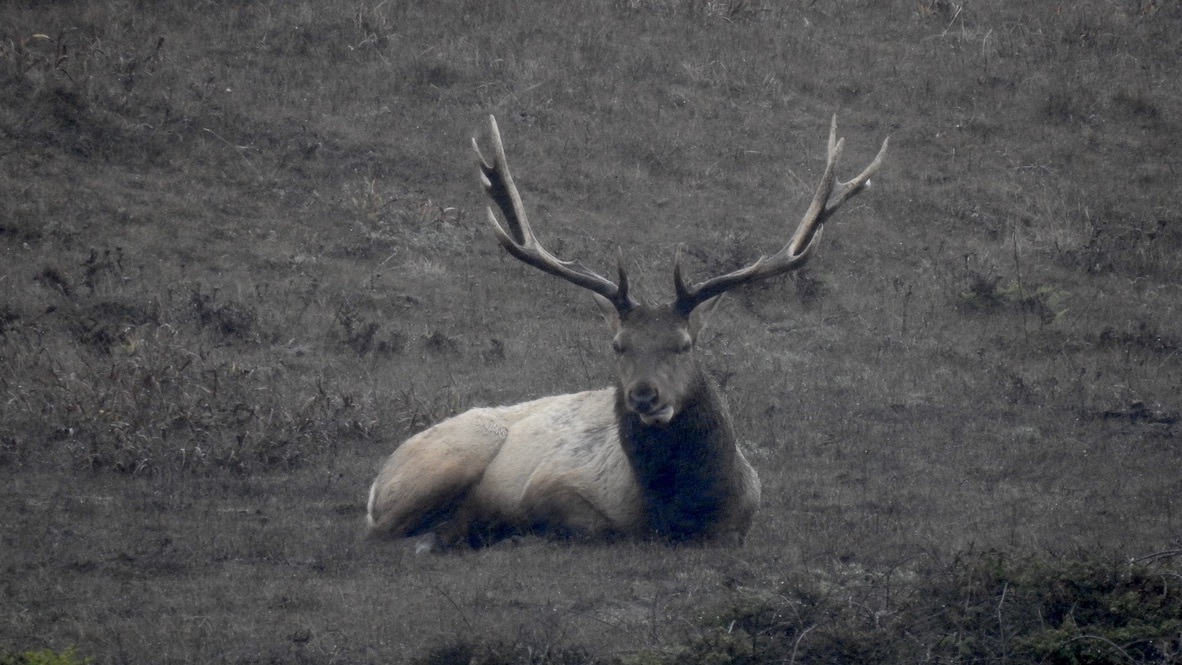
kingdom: Animalia
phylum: Chordata
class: Mammalia
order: Artiodactyla
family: Cervidae
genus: Cervus
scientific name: Cervus elaphus
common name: Red deer
